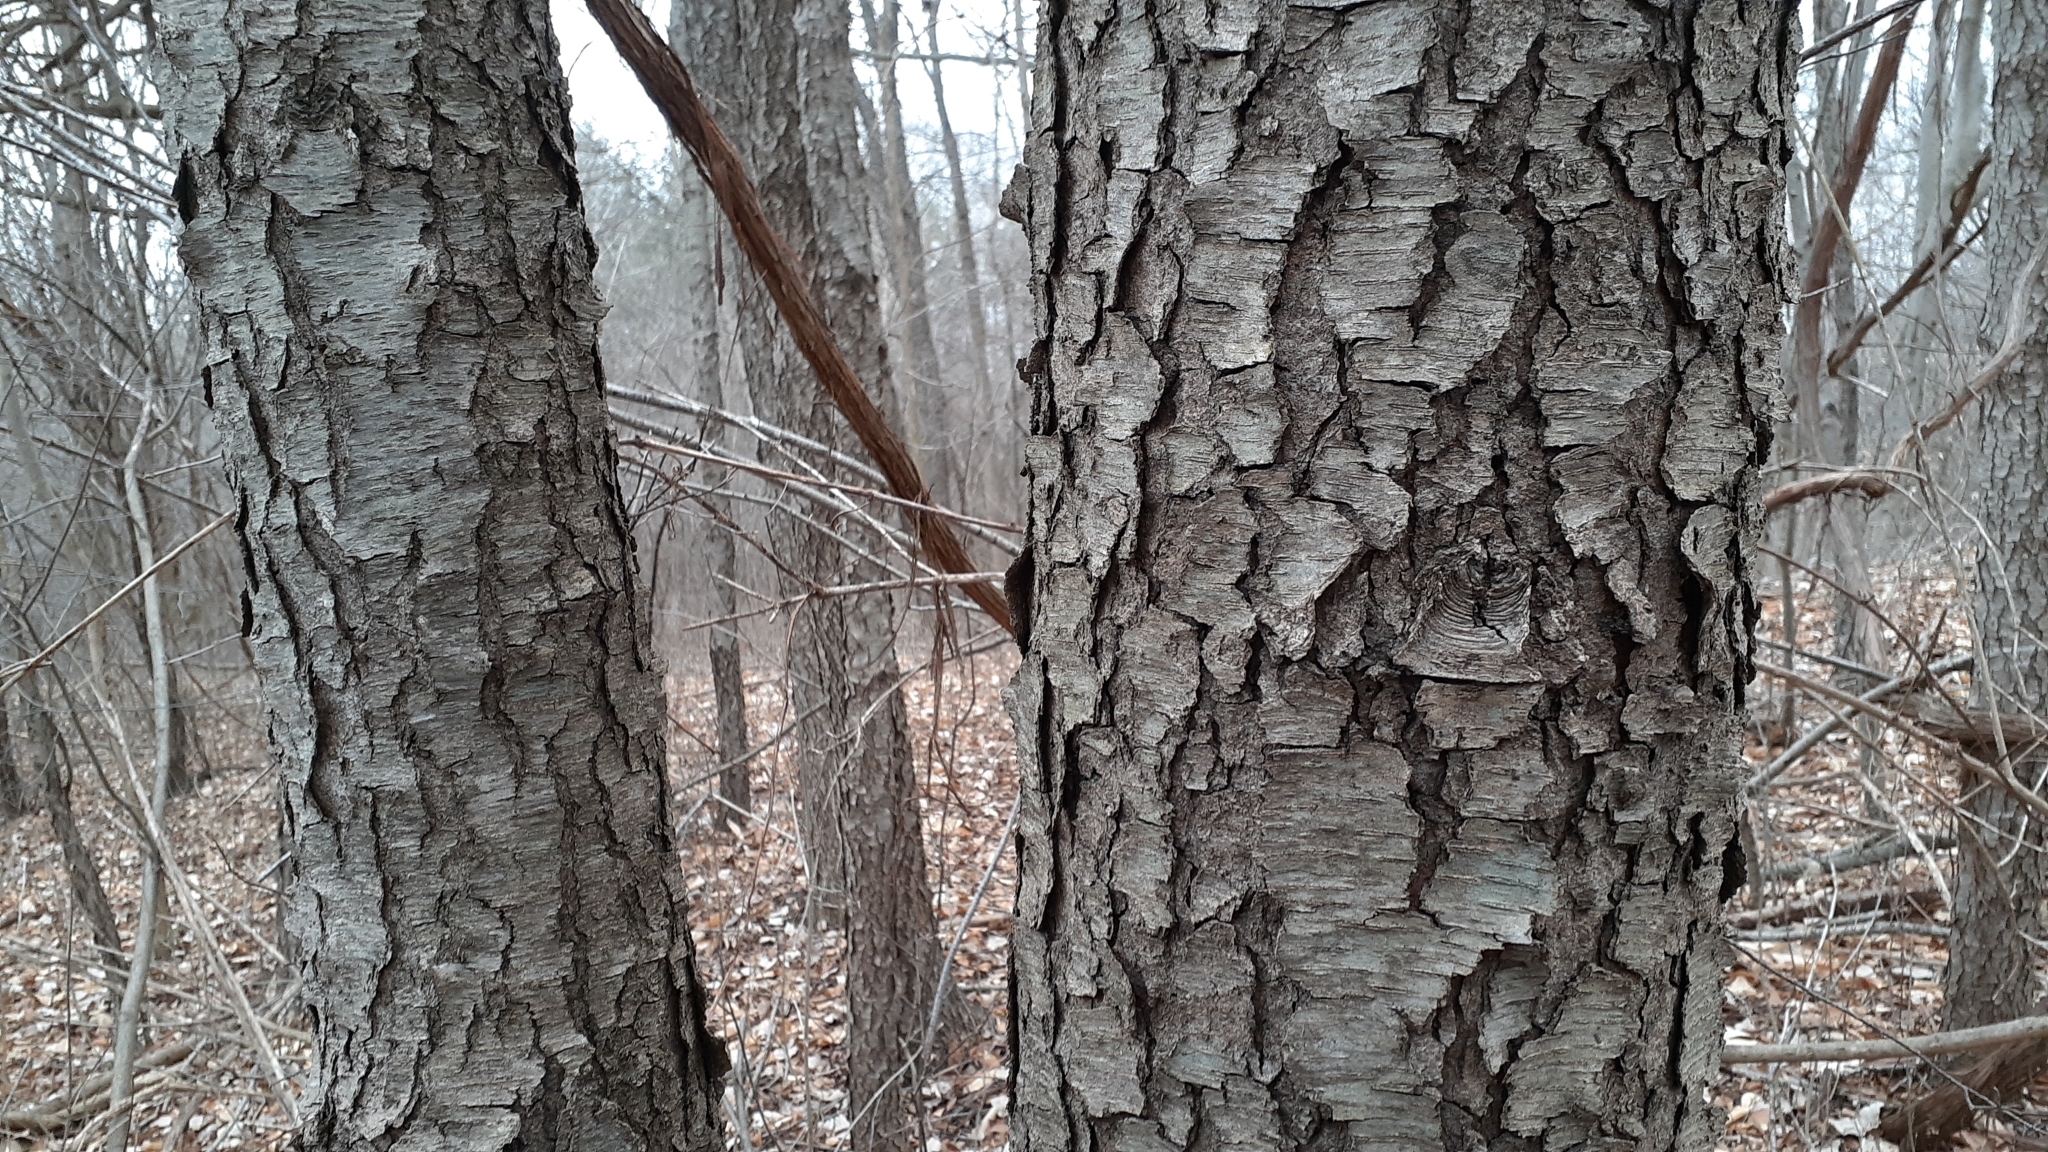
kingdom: Plantae
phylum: Tracheophyta
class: Magnoliopsida
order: Rosales
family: Rosaceae
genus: Prunus
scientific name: Prunus serotina
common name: Black cherry
